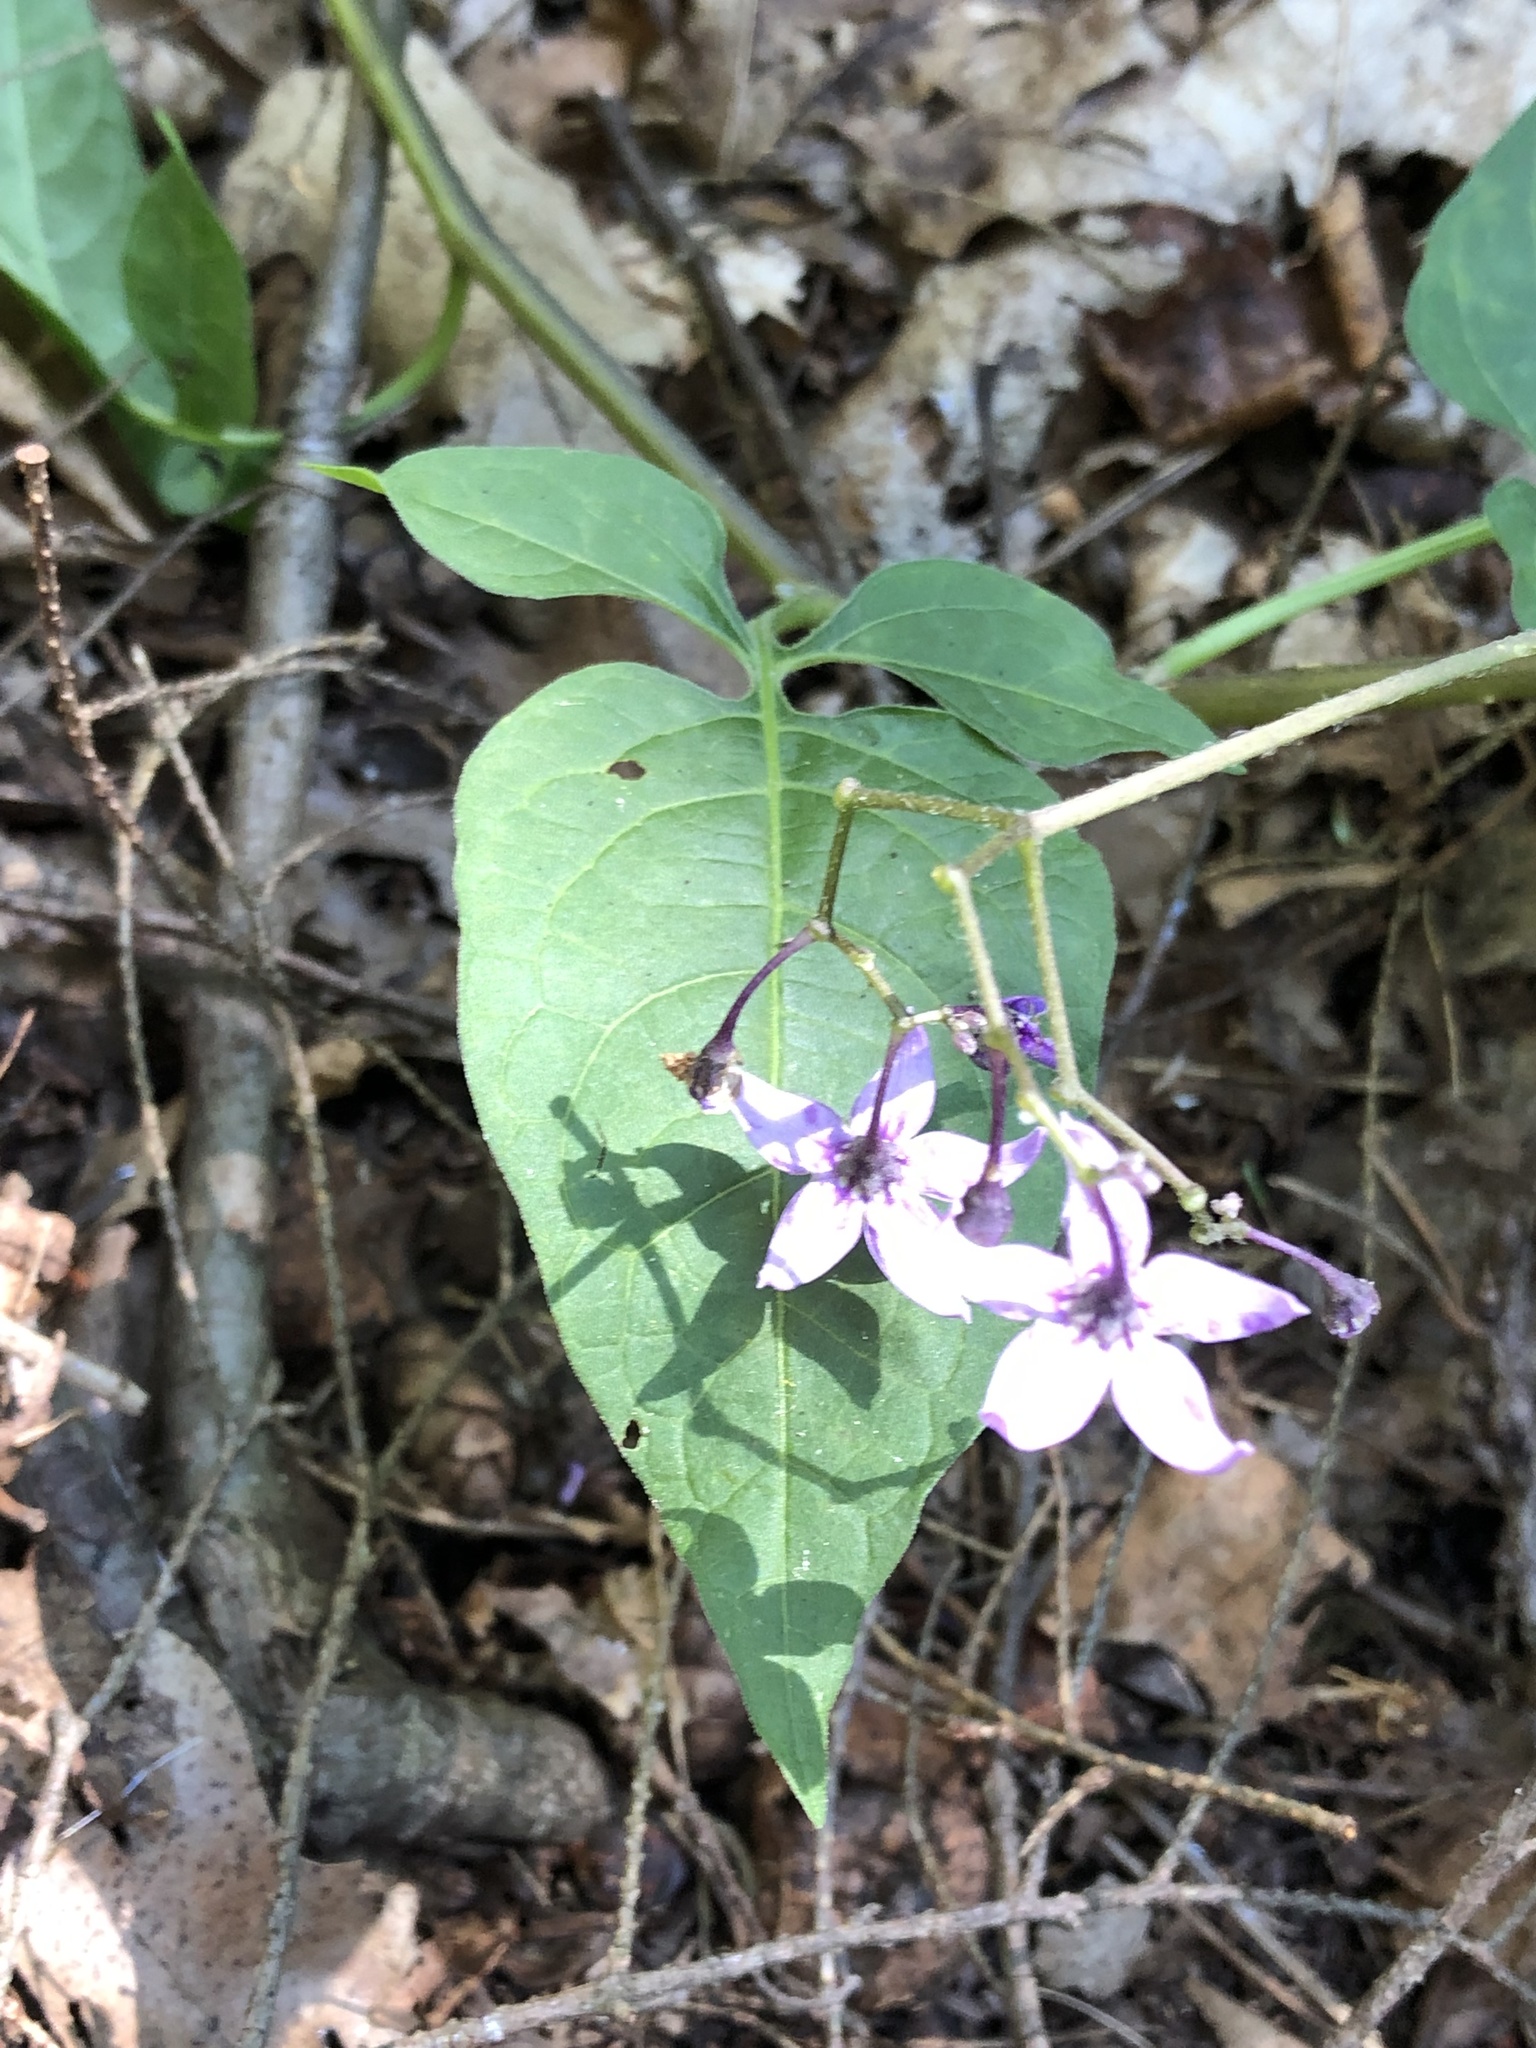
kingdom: Plantae
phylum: Tracheophyta
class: Magnoliopsida
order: Solanales
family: Solanaceae
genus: Solanum
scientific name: Solanum dulcamara
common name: Climbing nightshade
